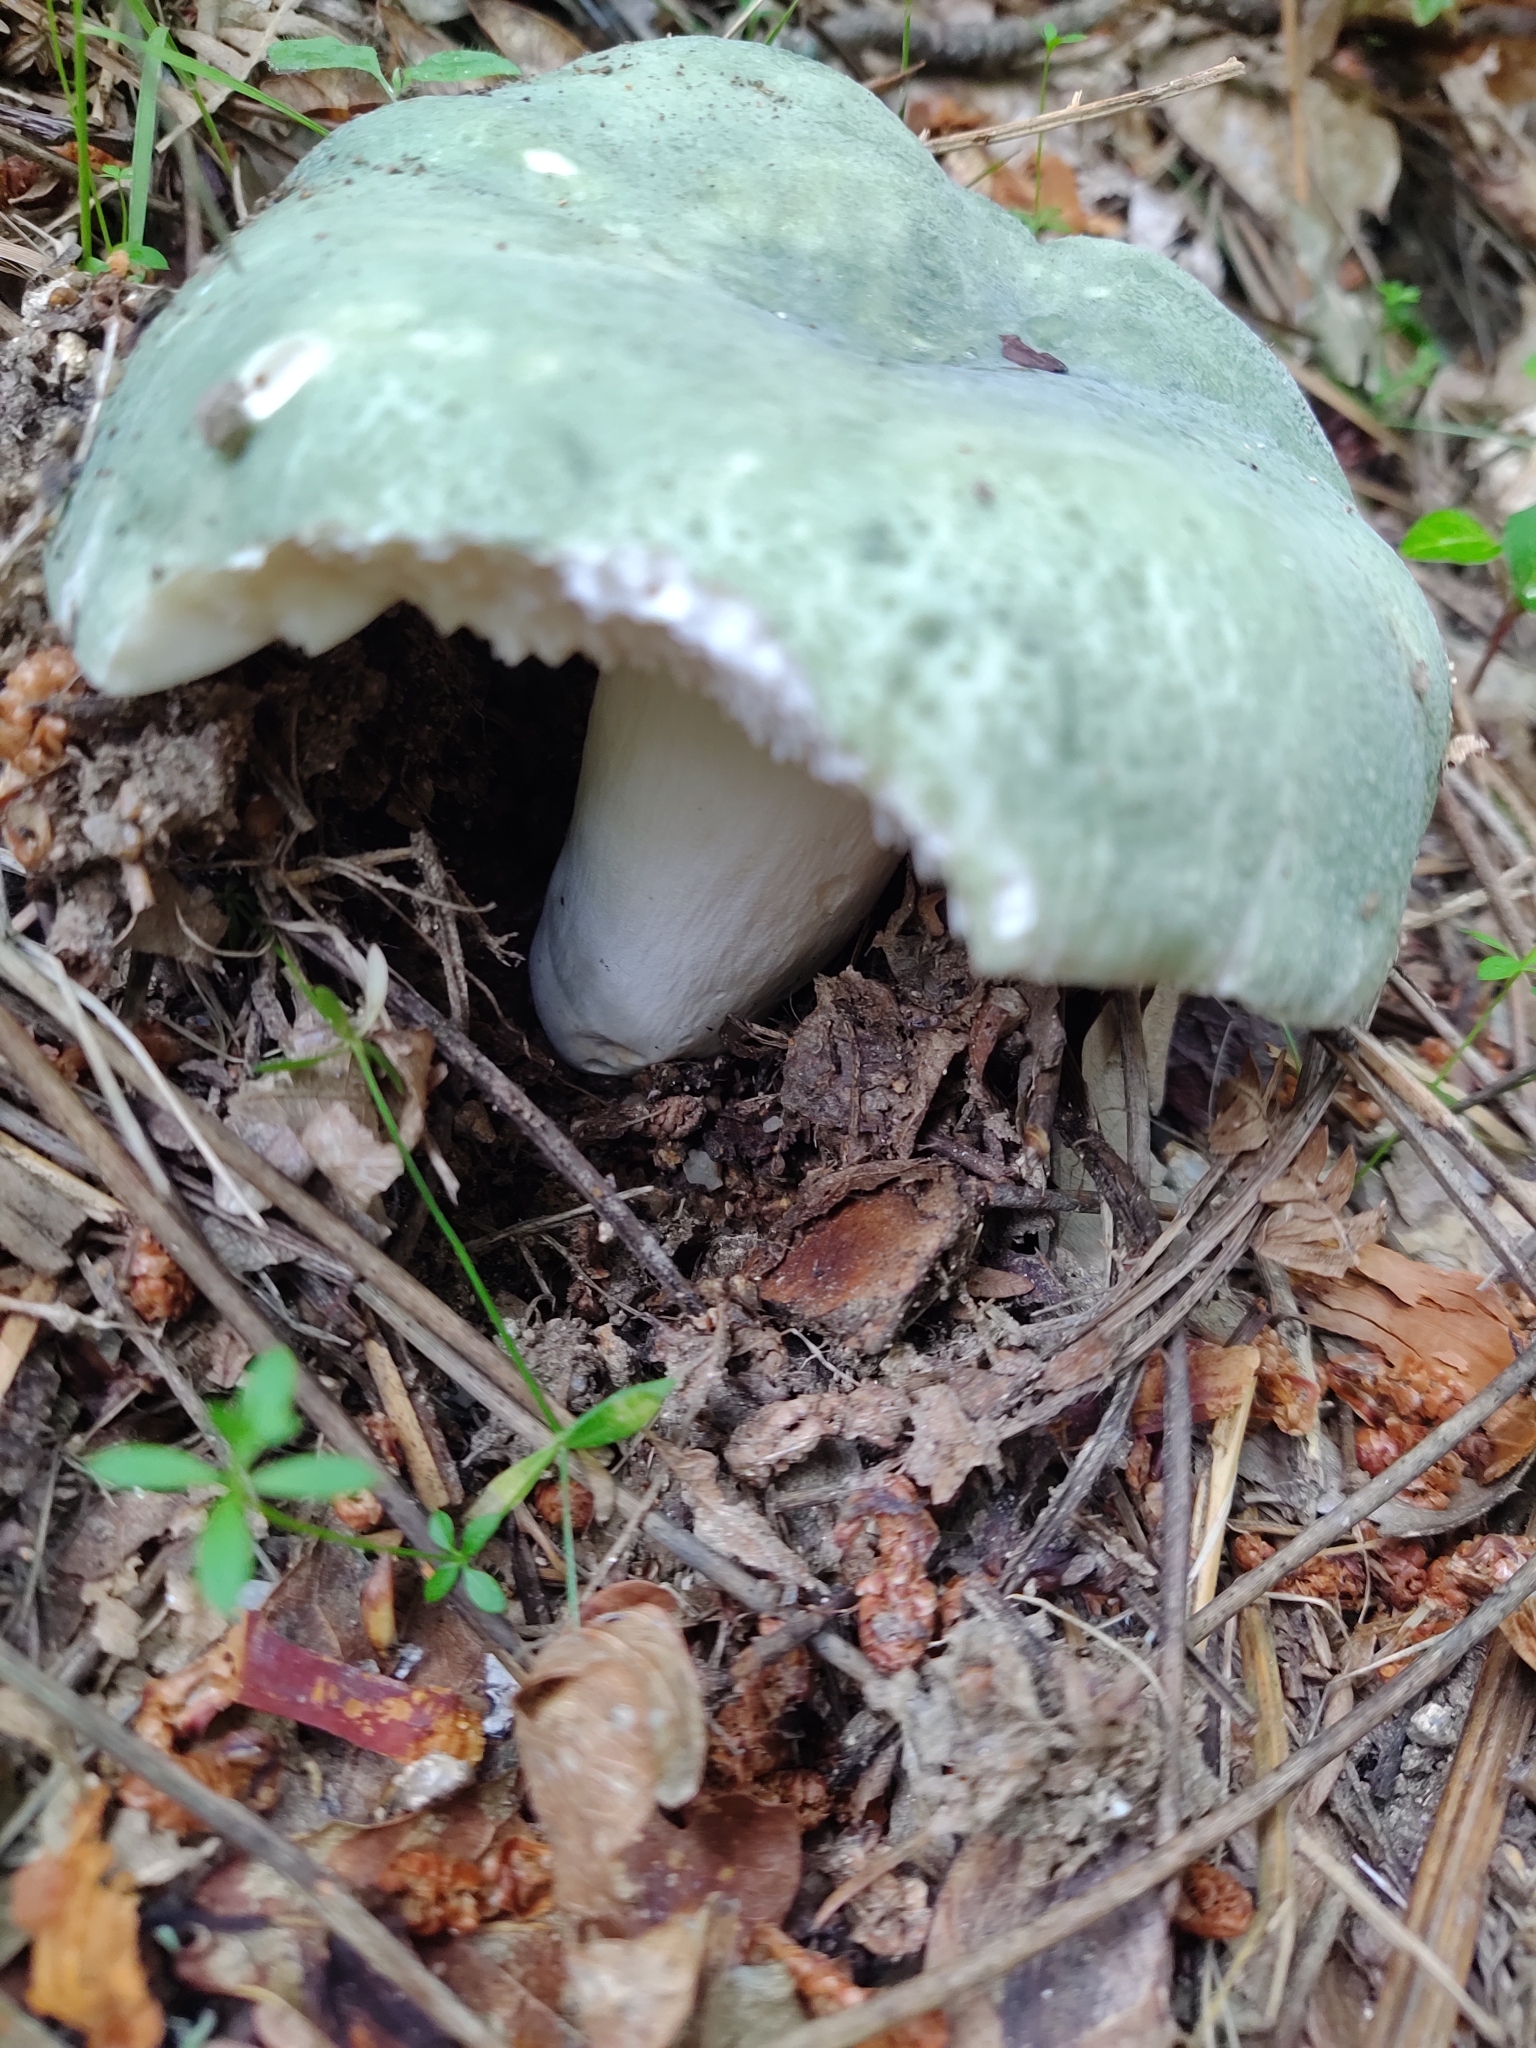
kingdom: Fungi
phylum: Basidiomycota
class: Agaricomycetes
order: Russulales
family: Russulaceae
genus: Russula
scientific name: Russula virescens
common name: Greencracked brittlegill
